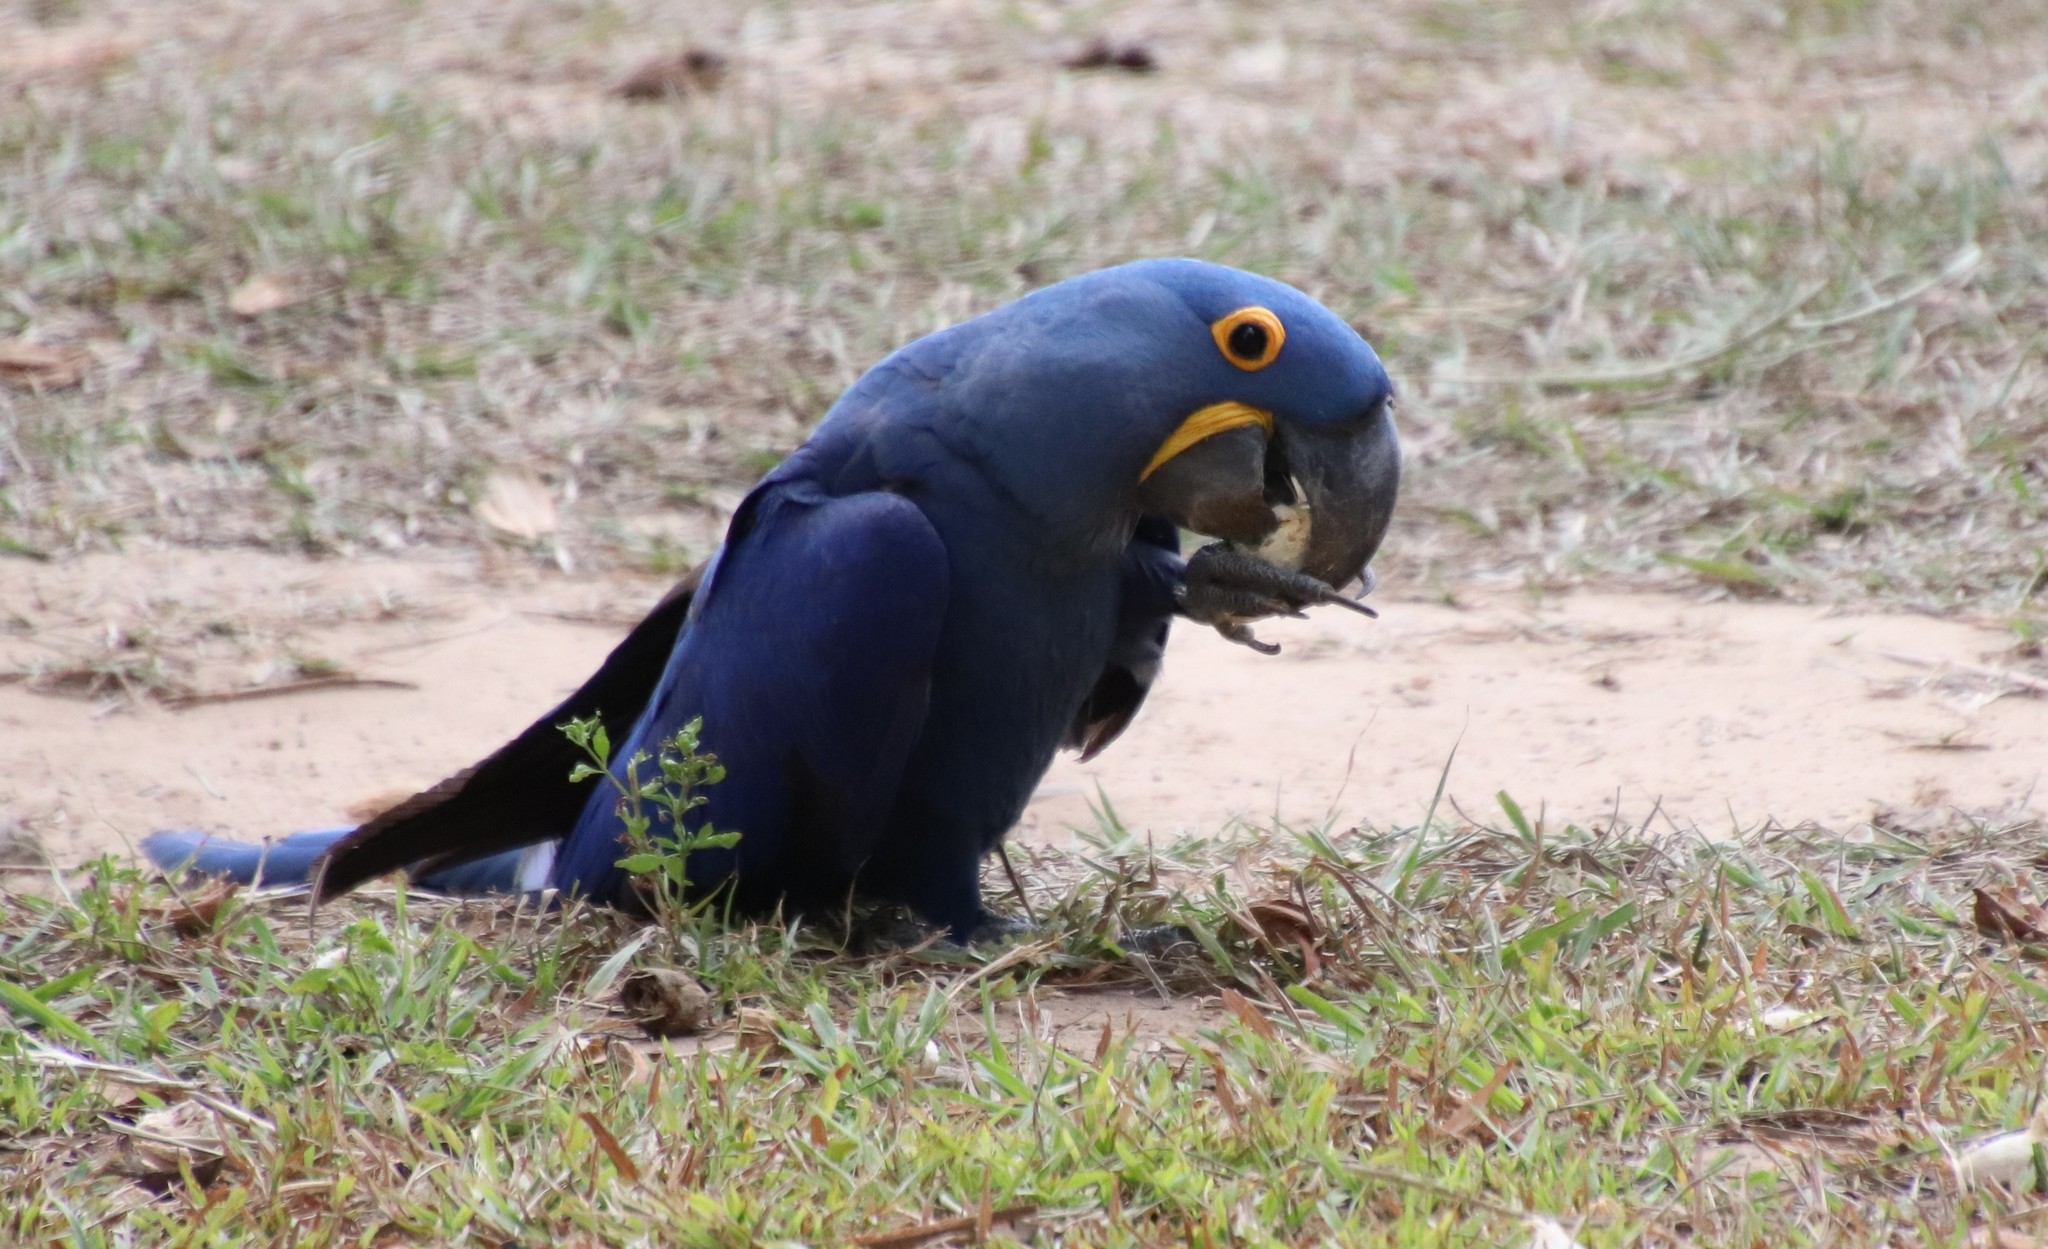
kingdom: Animalia
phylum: Chordata
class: Aves
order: Psittaciformes
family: Psittacidae
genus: Anodorhynchus
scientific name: Anodorhynchus hyacinthinus
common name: Hyacinth macaw
